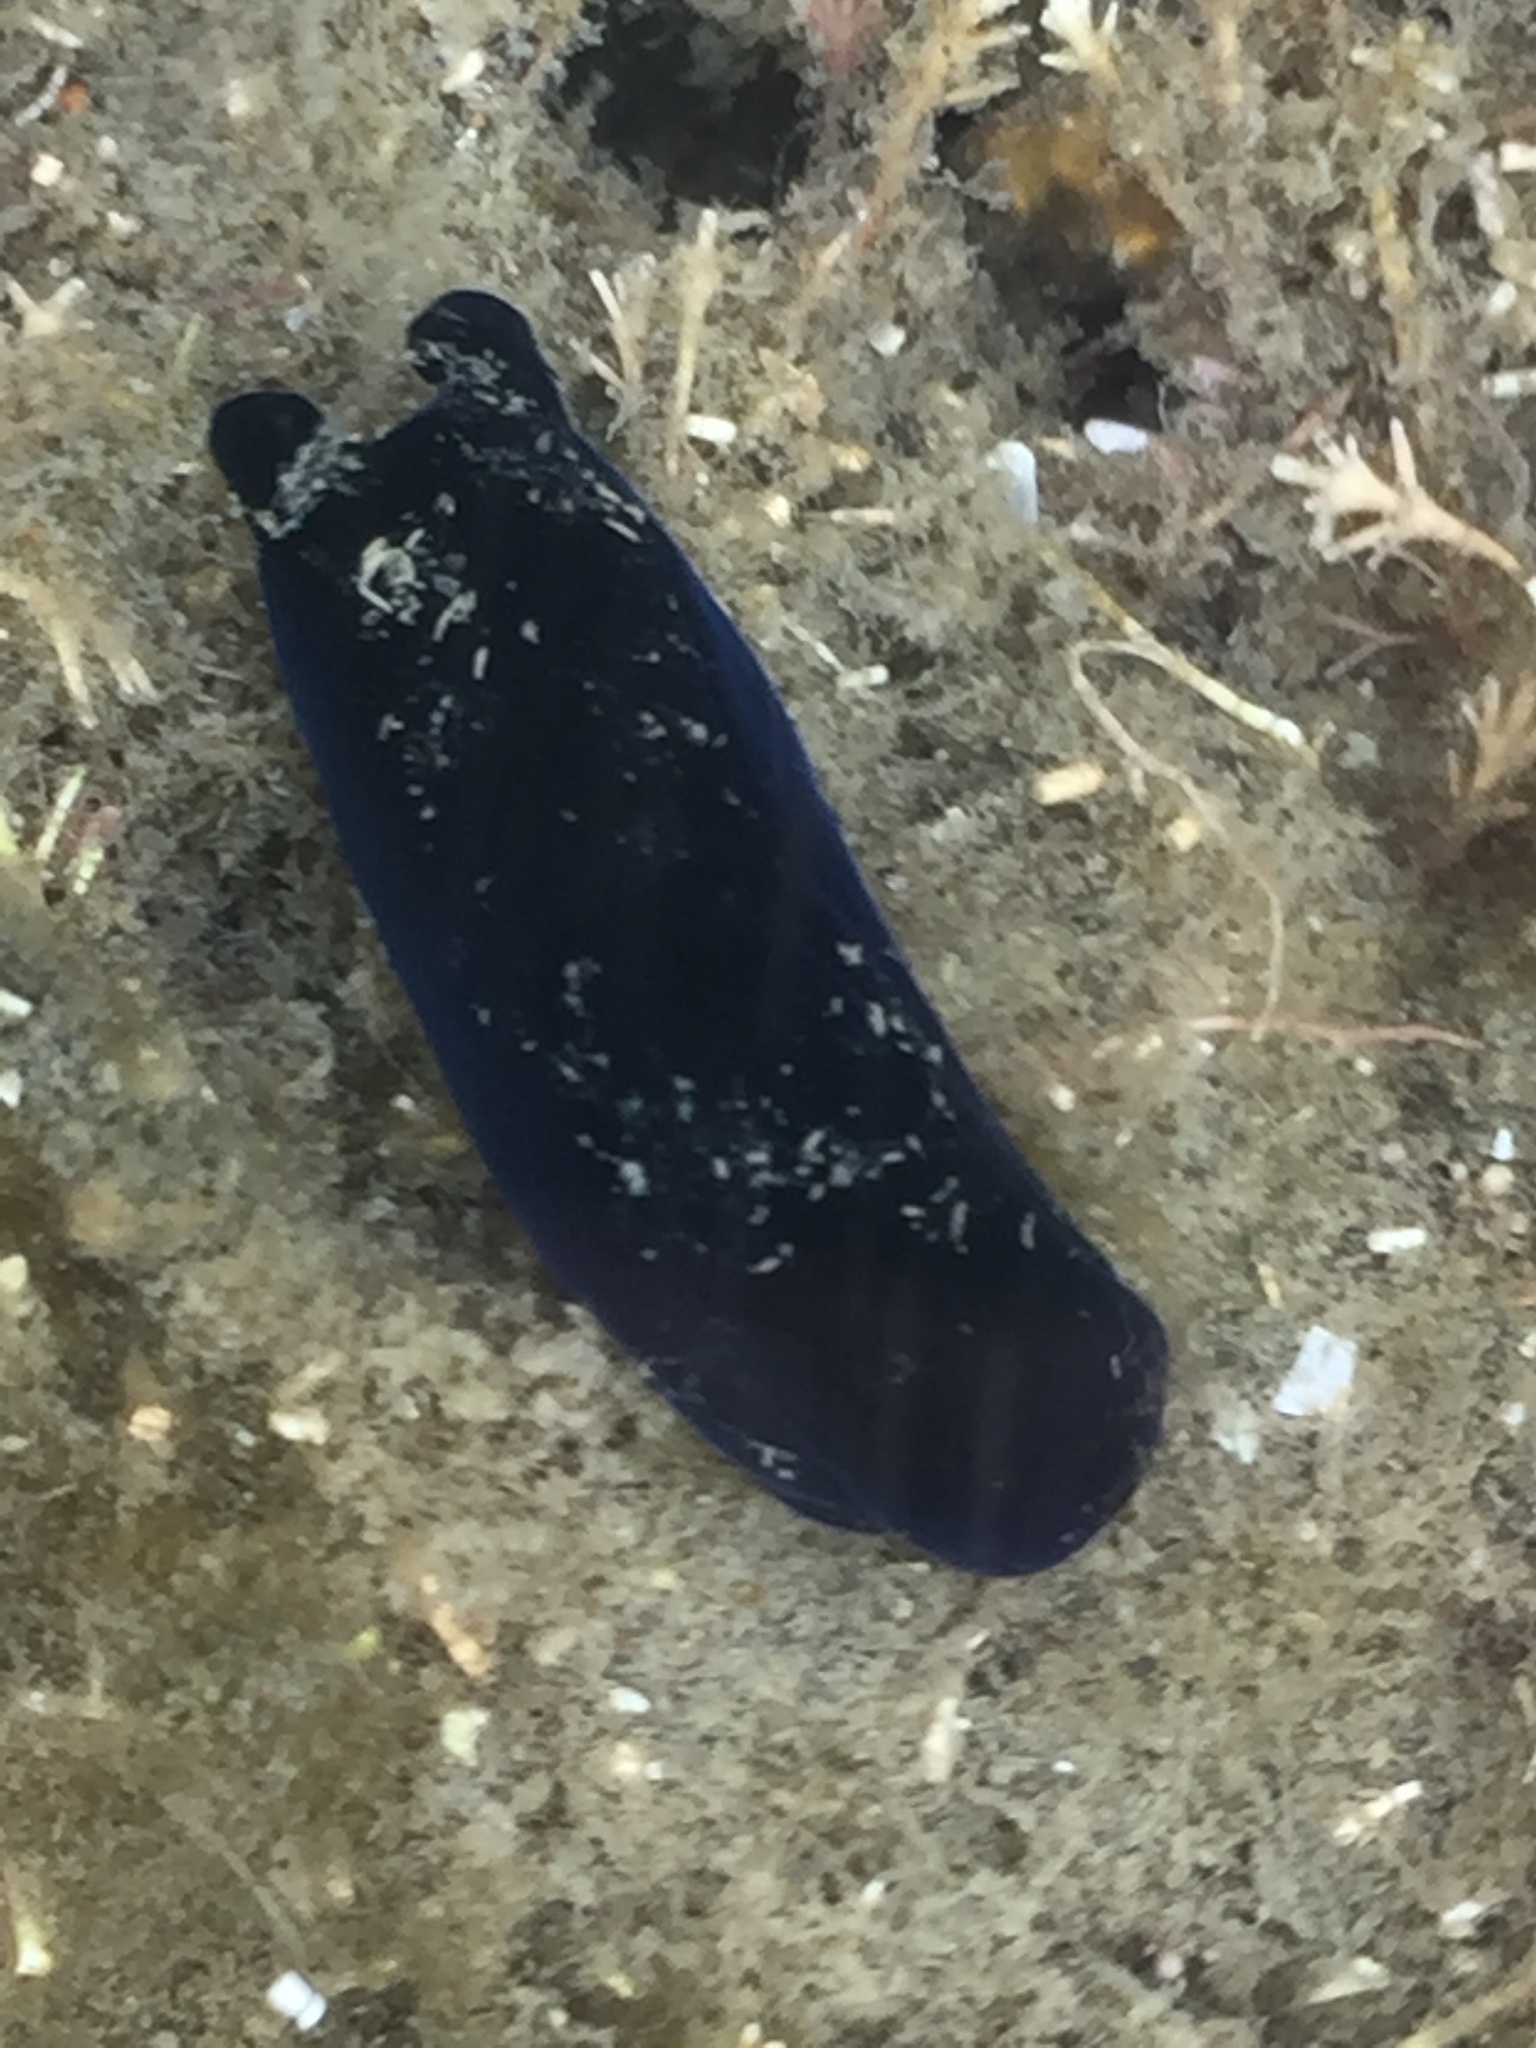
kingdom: Animalia
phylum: Mollusca
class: Gastropoda
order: Cephalaspidea
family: Aglajidae
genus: Melanochlamys
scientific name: Melanochlamys cylindrica
